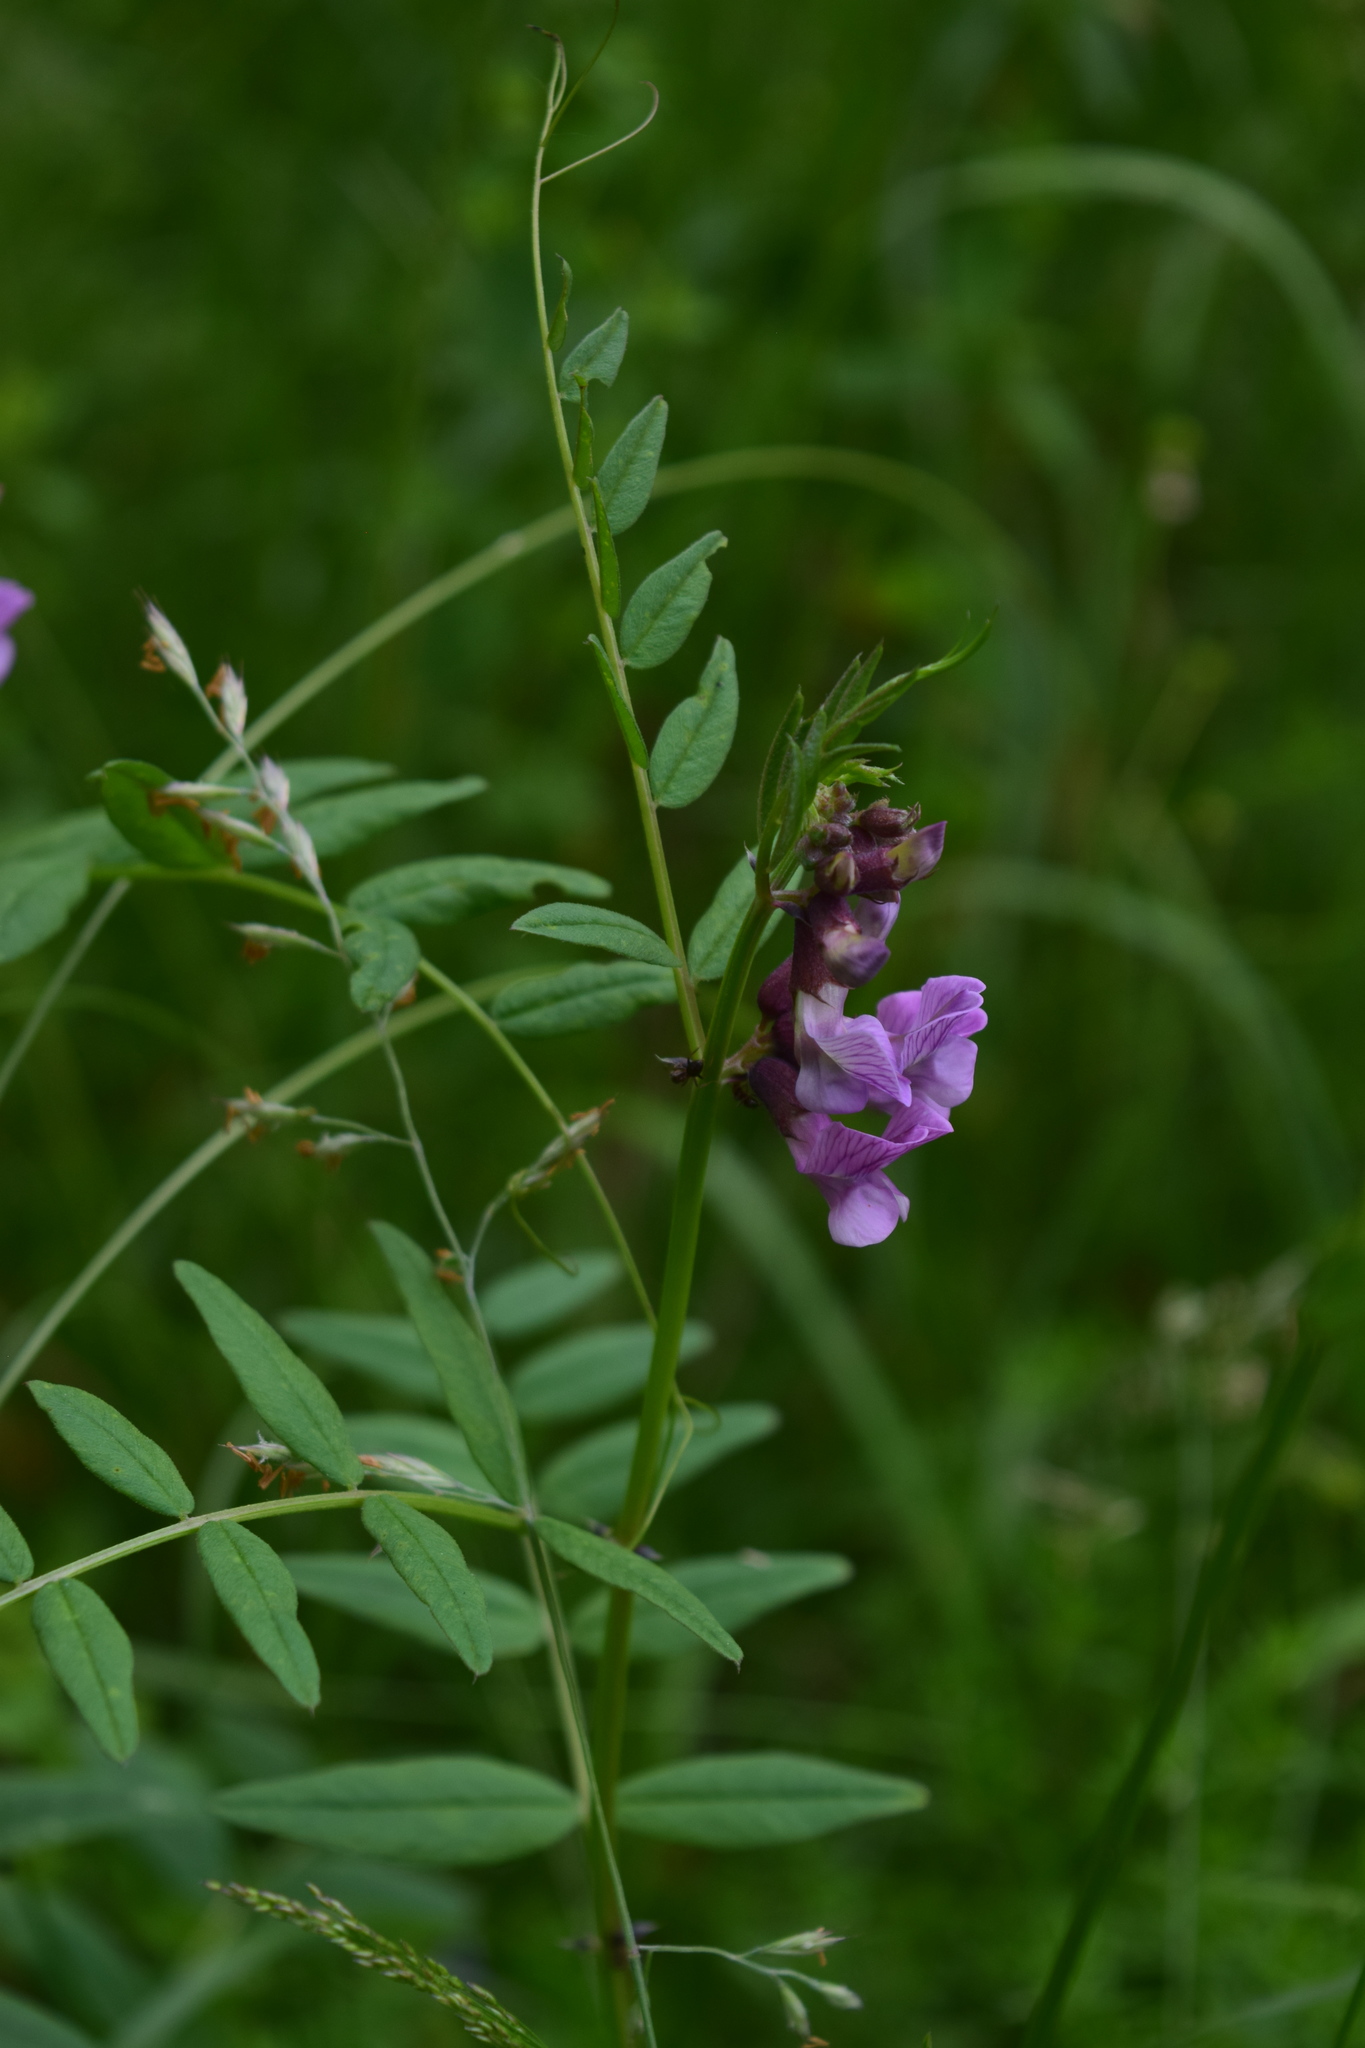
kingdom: Plantae
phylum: Tracheophyta
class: Magnoliopsida
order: Fabales
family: Fabaceae
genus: Vicia
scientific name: Vicia sepium
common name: Bush vetch
